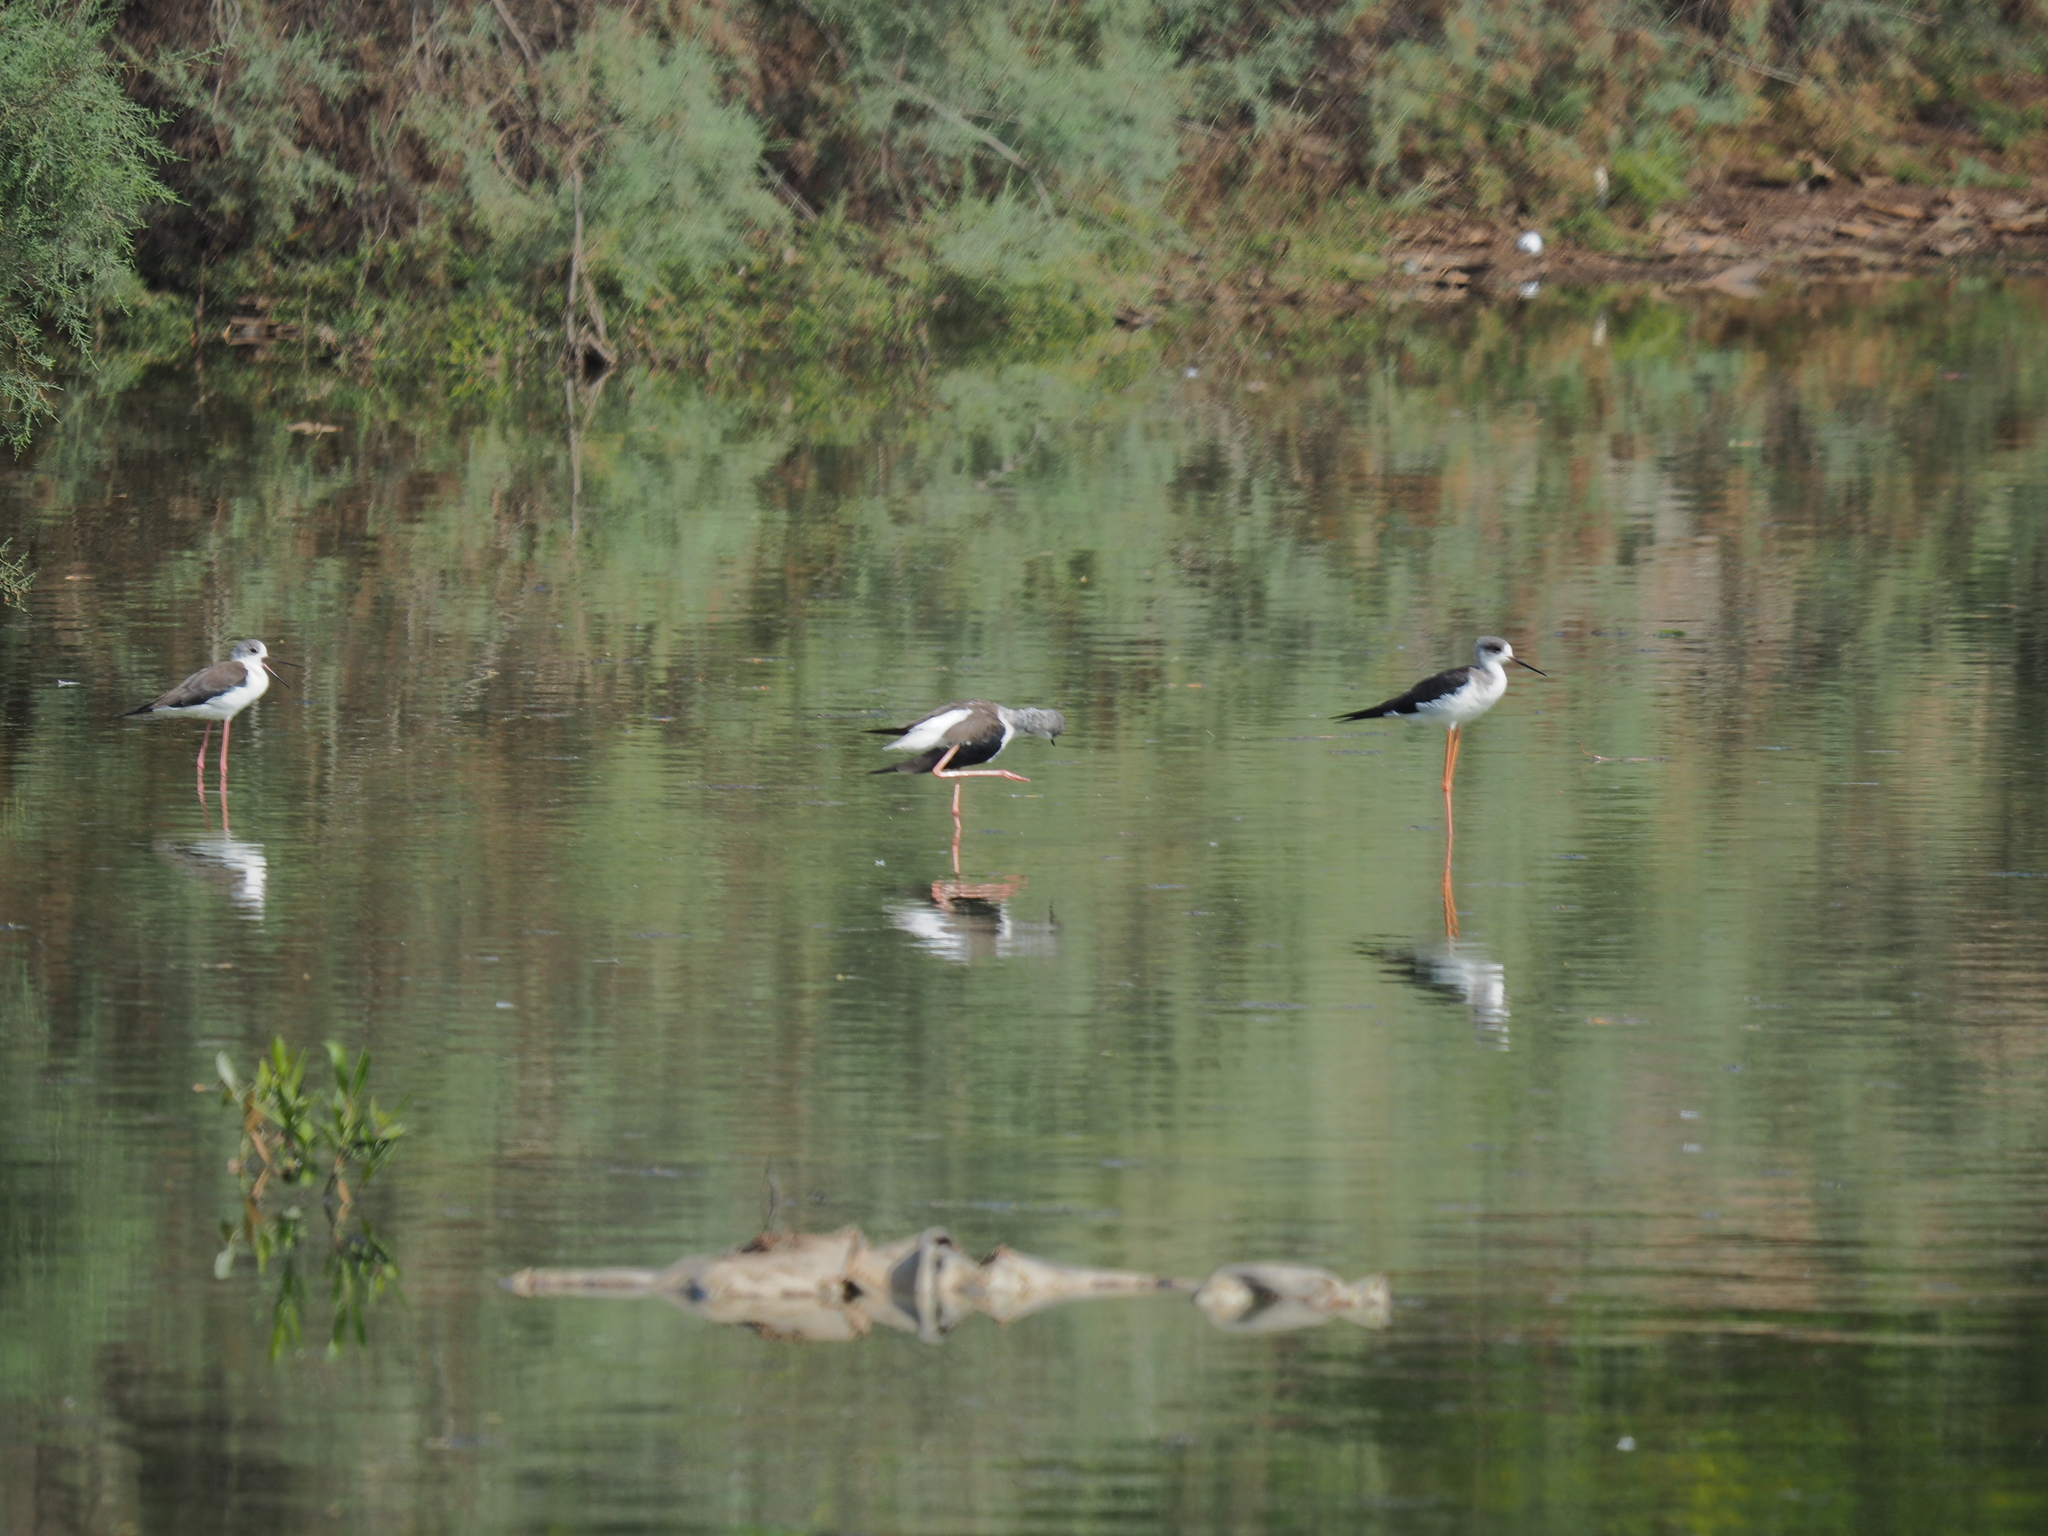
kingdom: Animalia
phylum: Chordata
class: Aves
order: Charadriiformes
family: Recurvirostridae
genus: Himantopus
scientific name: Himantopus himantopus
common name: Black-winged stilt
